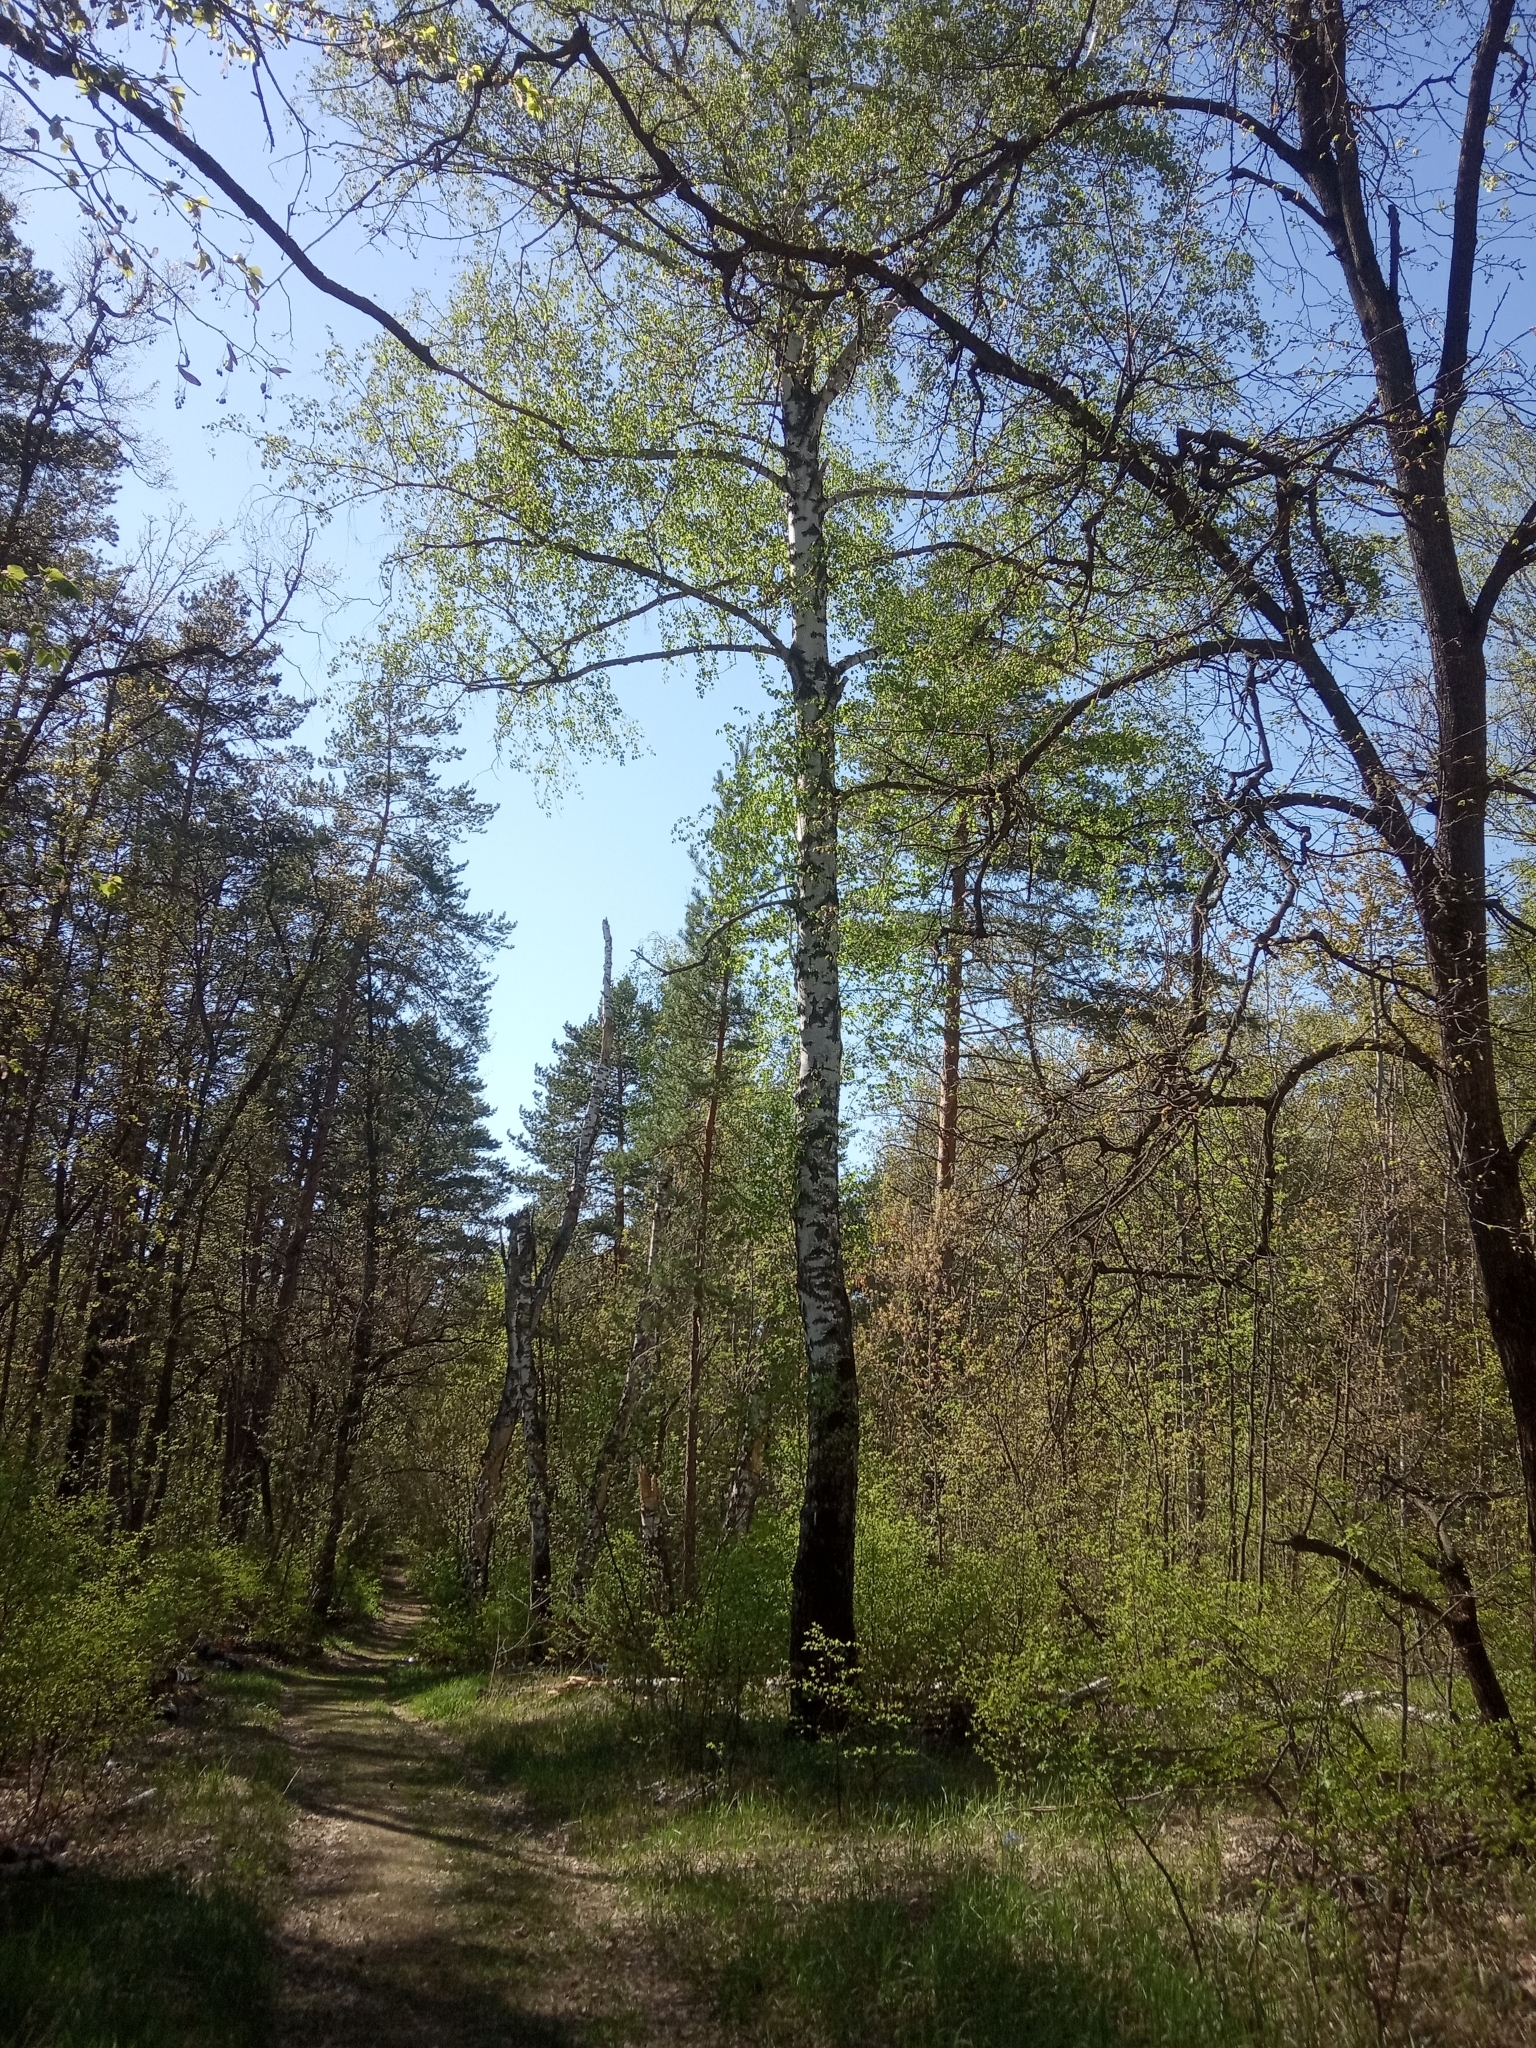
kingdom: Plantae
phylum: Tracheophyta
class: Magnoliopsida
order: Fagales
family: Betulaceae
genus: Betula
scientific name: Betula pendula
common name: Silver birch
